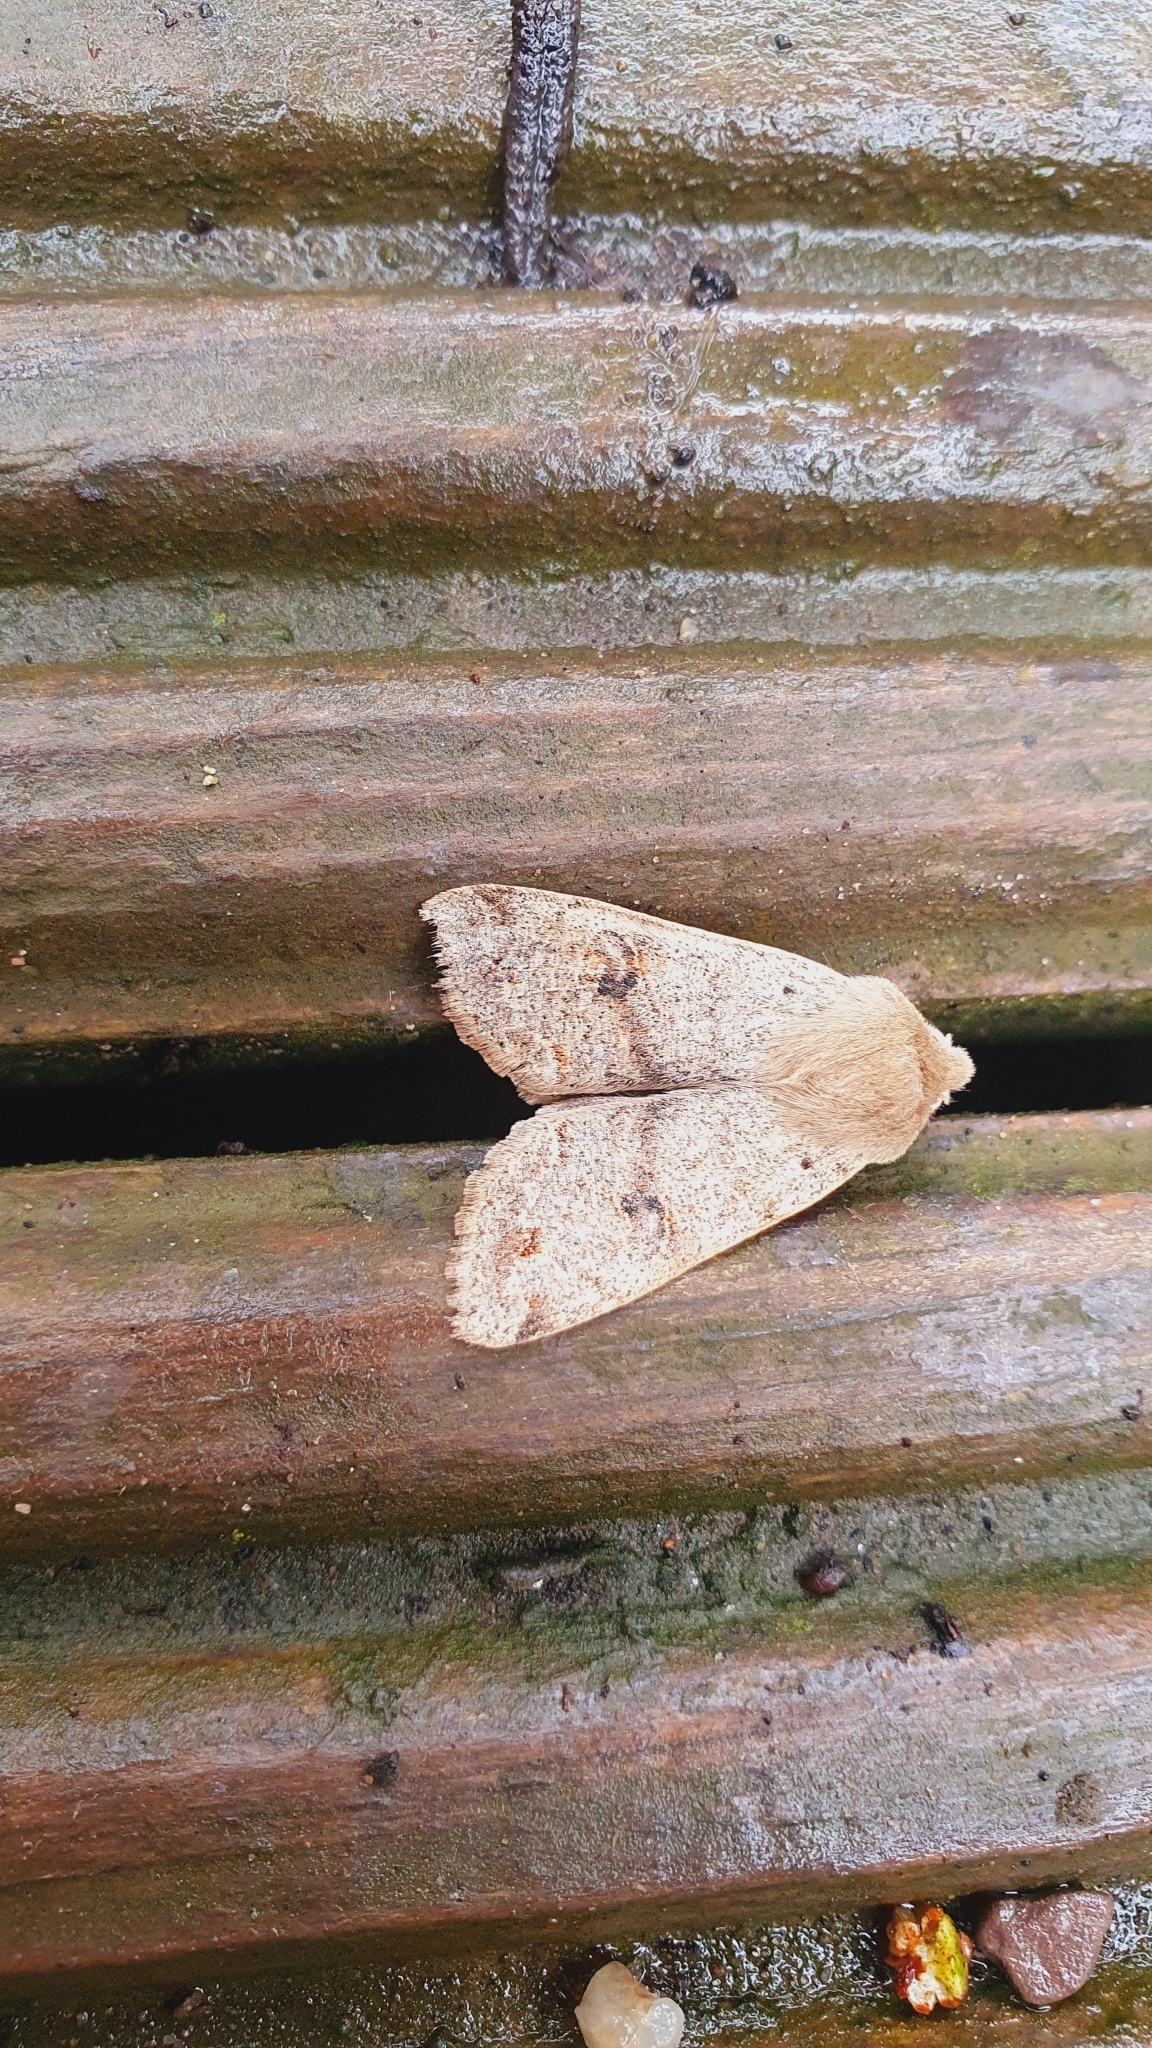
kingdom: Animalia
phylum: Arthropoda
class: Insecta
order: Lepidoptera
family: Noctuidae
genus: Anorthoa
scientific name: Anorthoa munda
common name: Twin-spotted quaker
